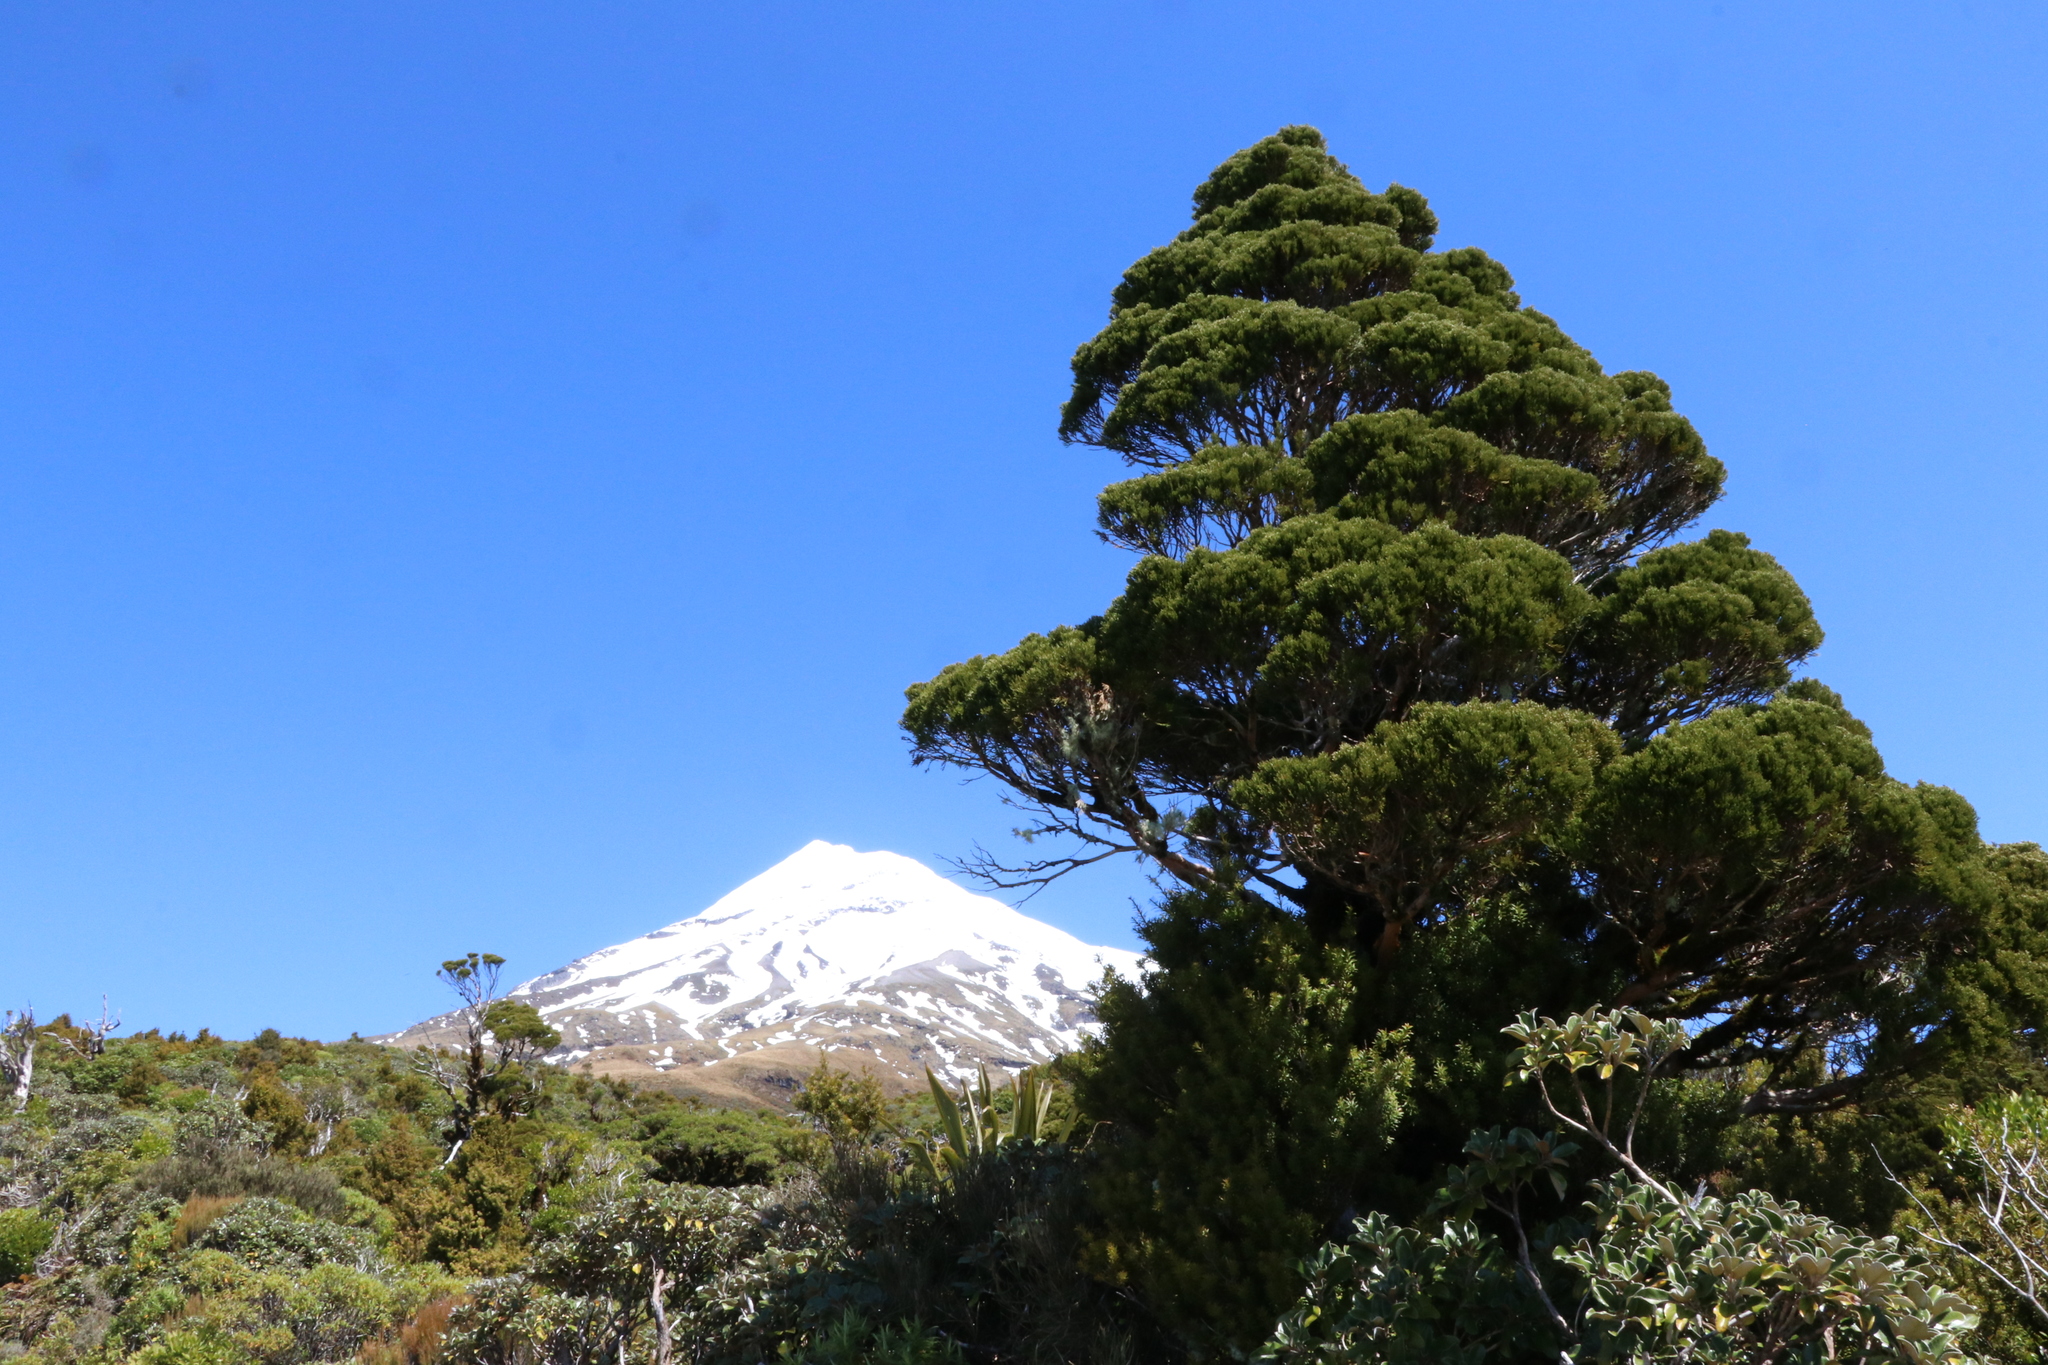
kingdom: Plantae
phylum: Tracheophyta
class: Pinopsida
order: Pinales
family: Cupressaceae
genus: Libocedrus
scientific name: Libocedrus bidwillii
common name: Cedar
